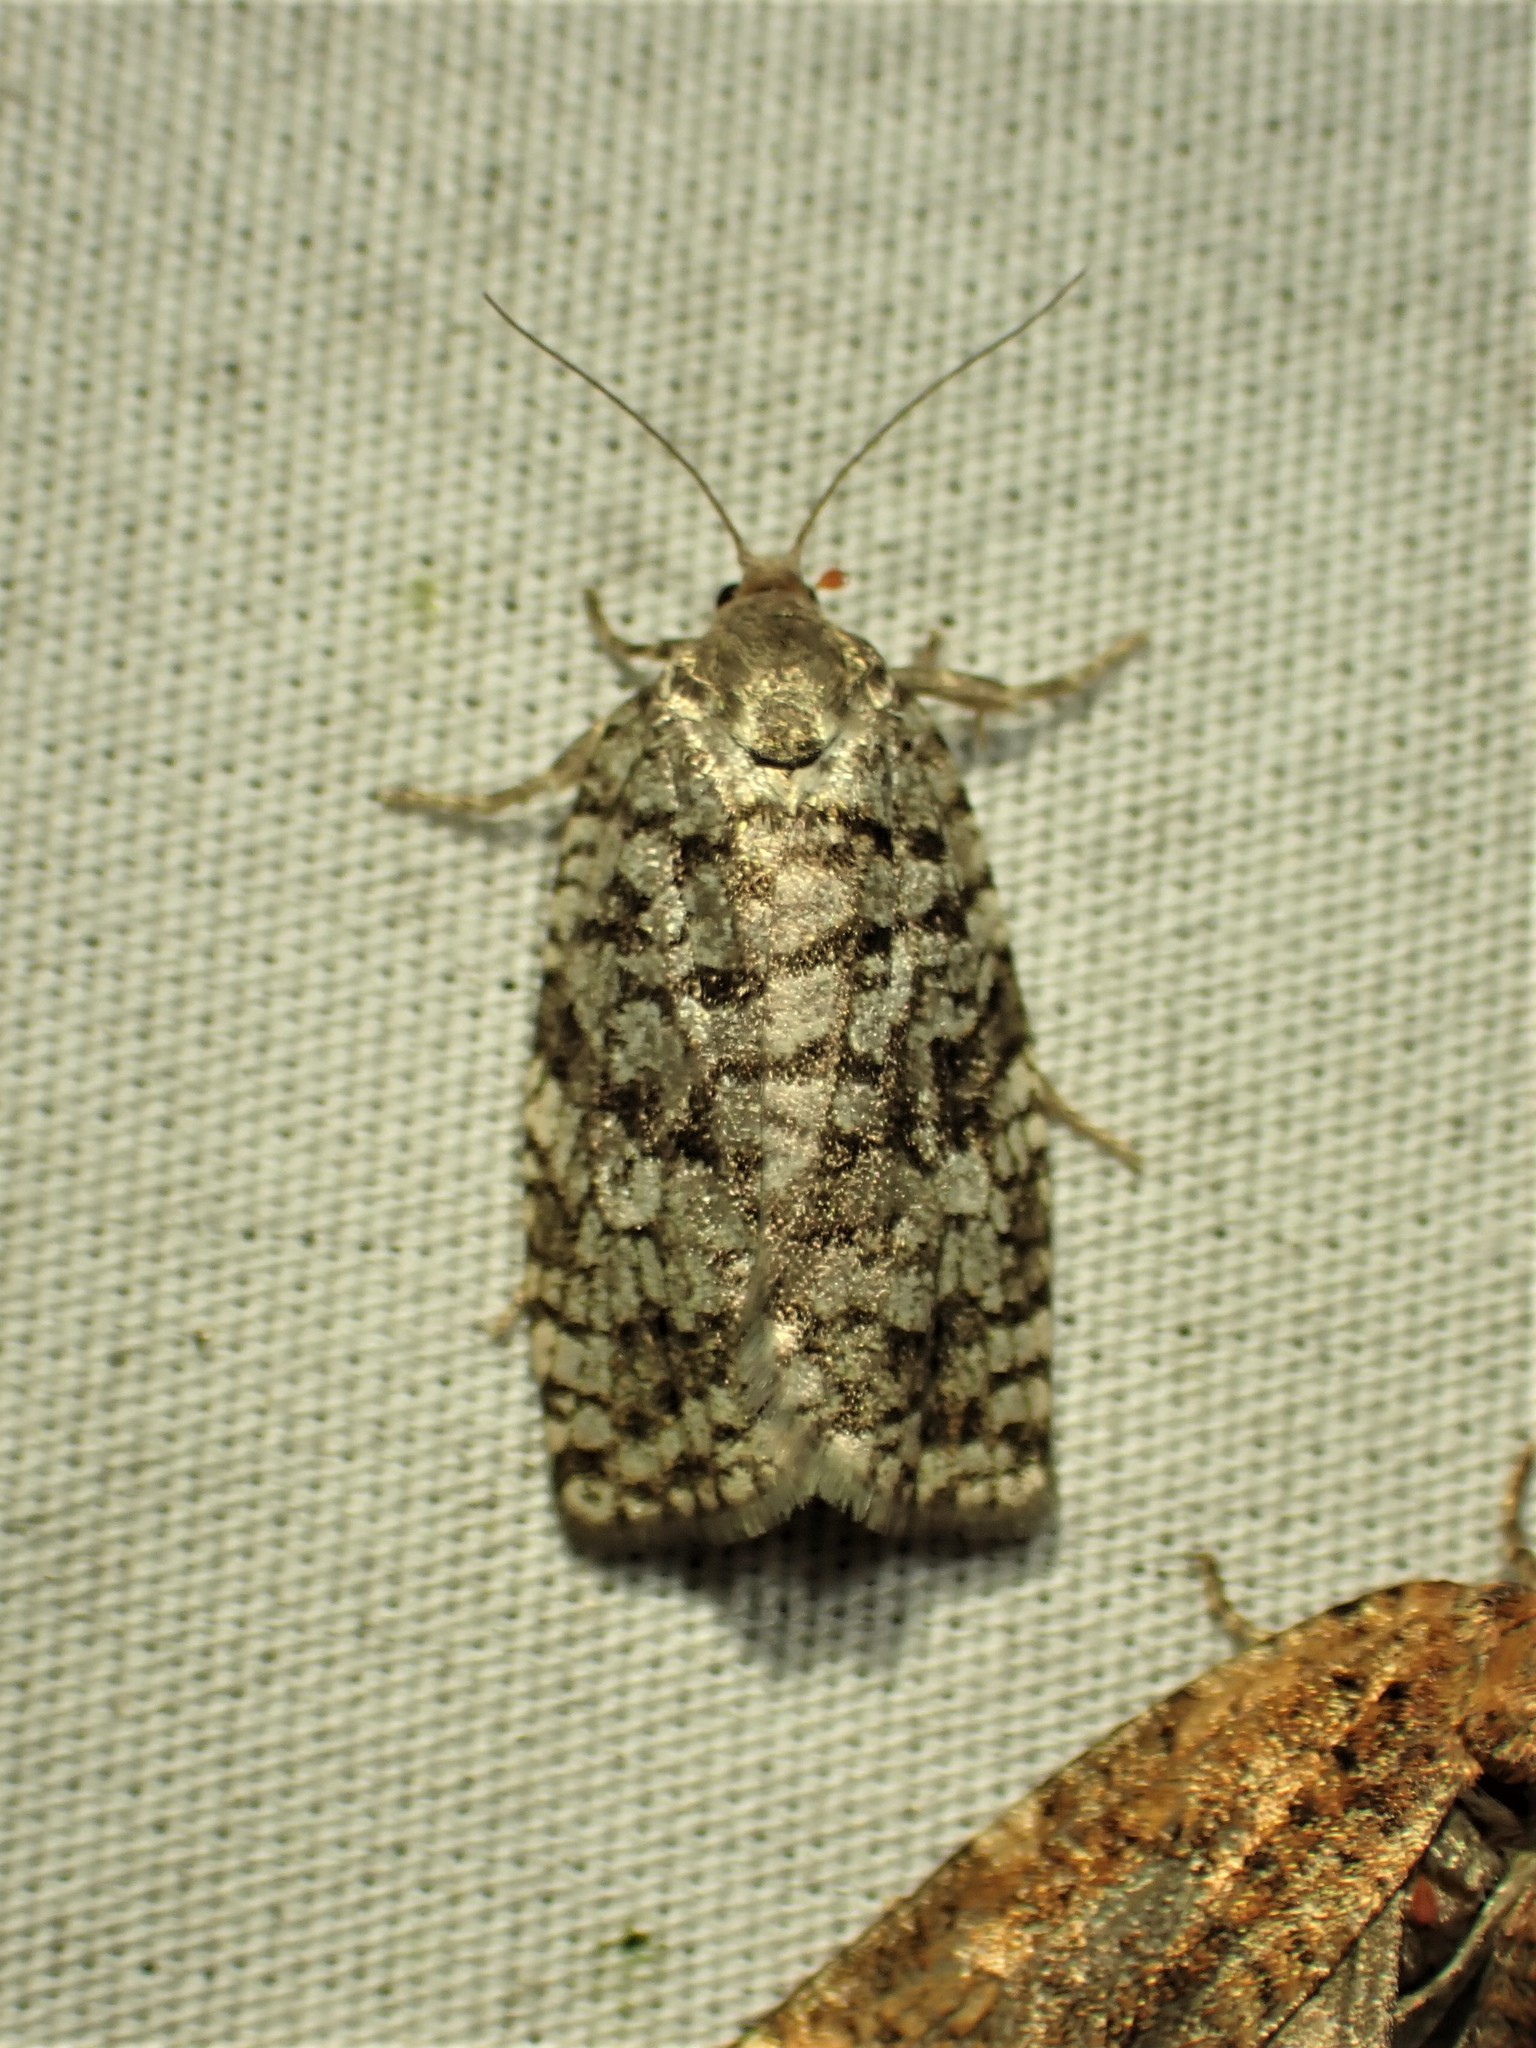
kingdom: Animalia
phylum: Arthropoda
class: Insecta
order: Lepidoptera
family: Tortricidae
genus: Choristoneura
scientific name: Choristoneura fumiferana
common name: Spruce budworm
